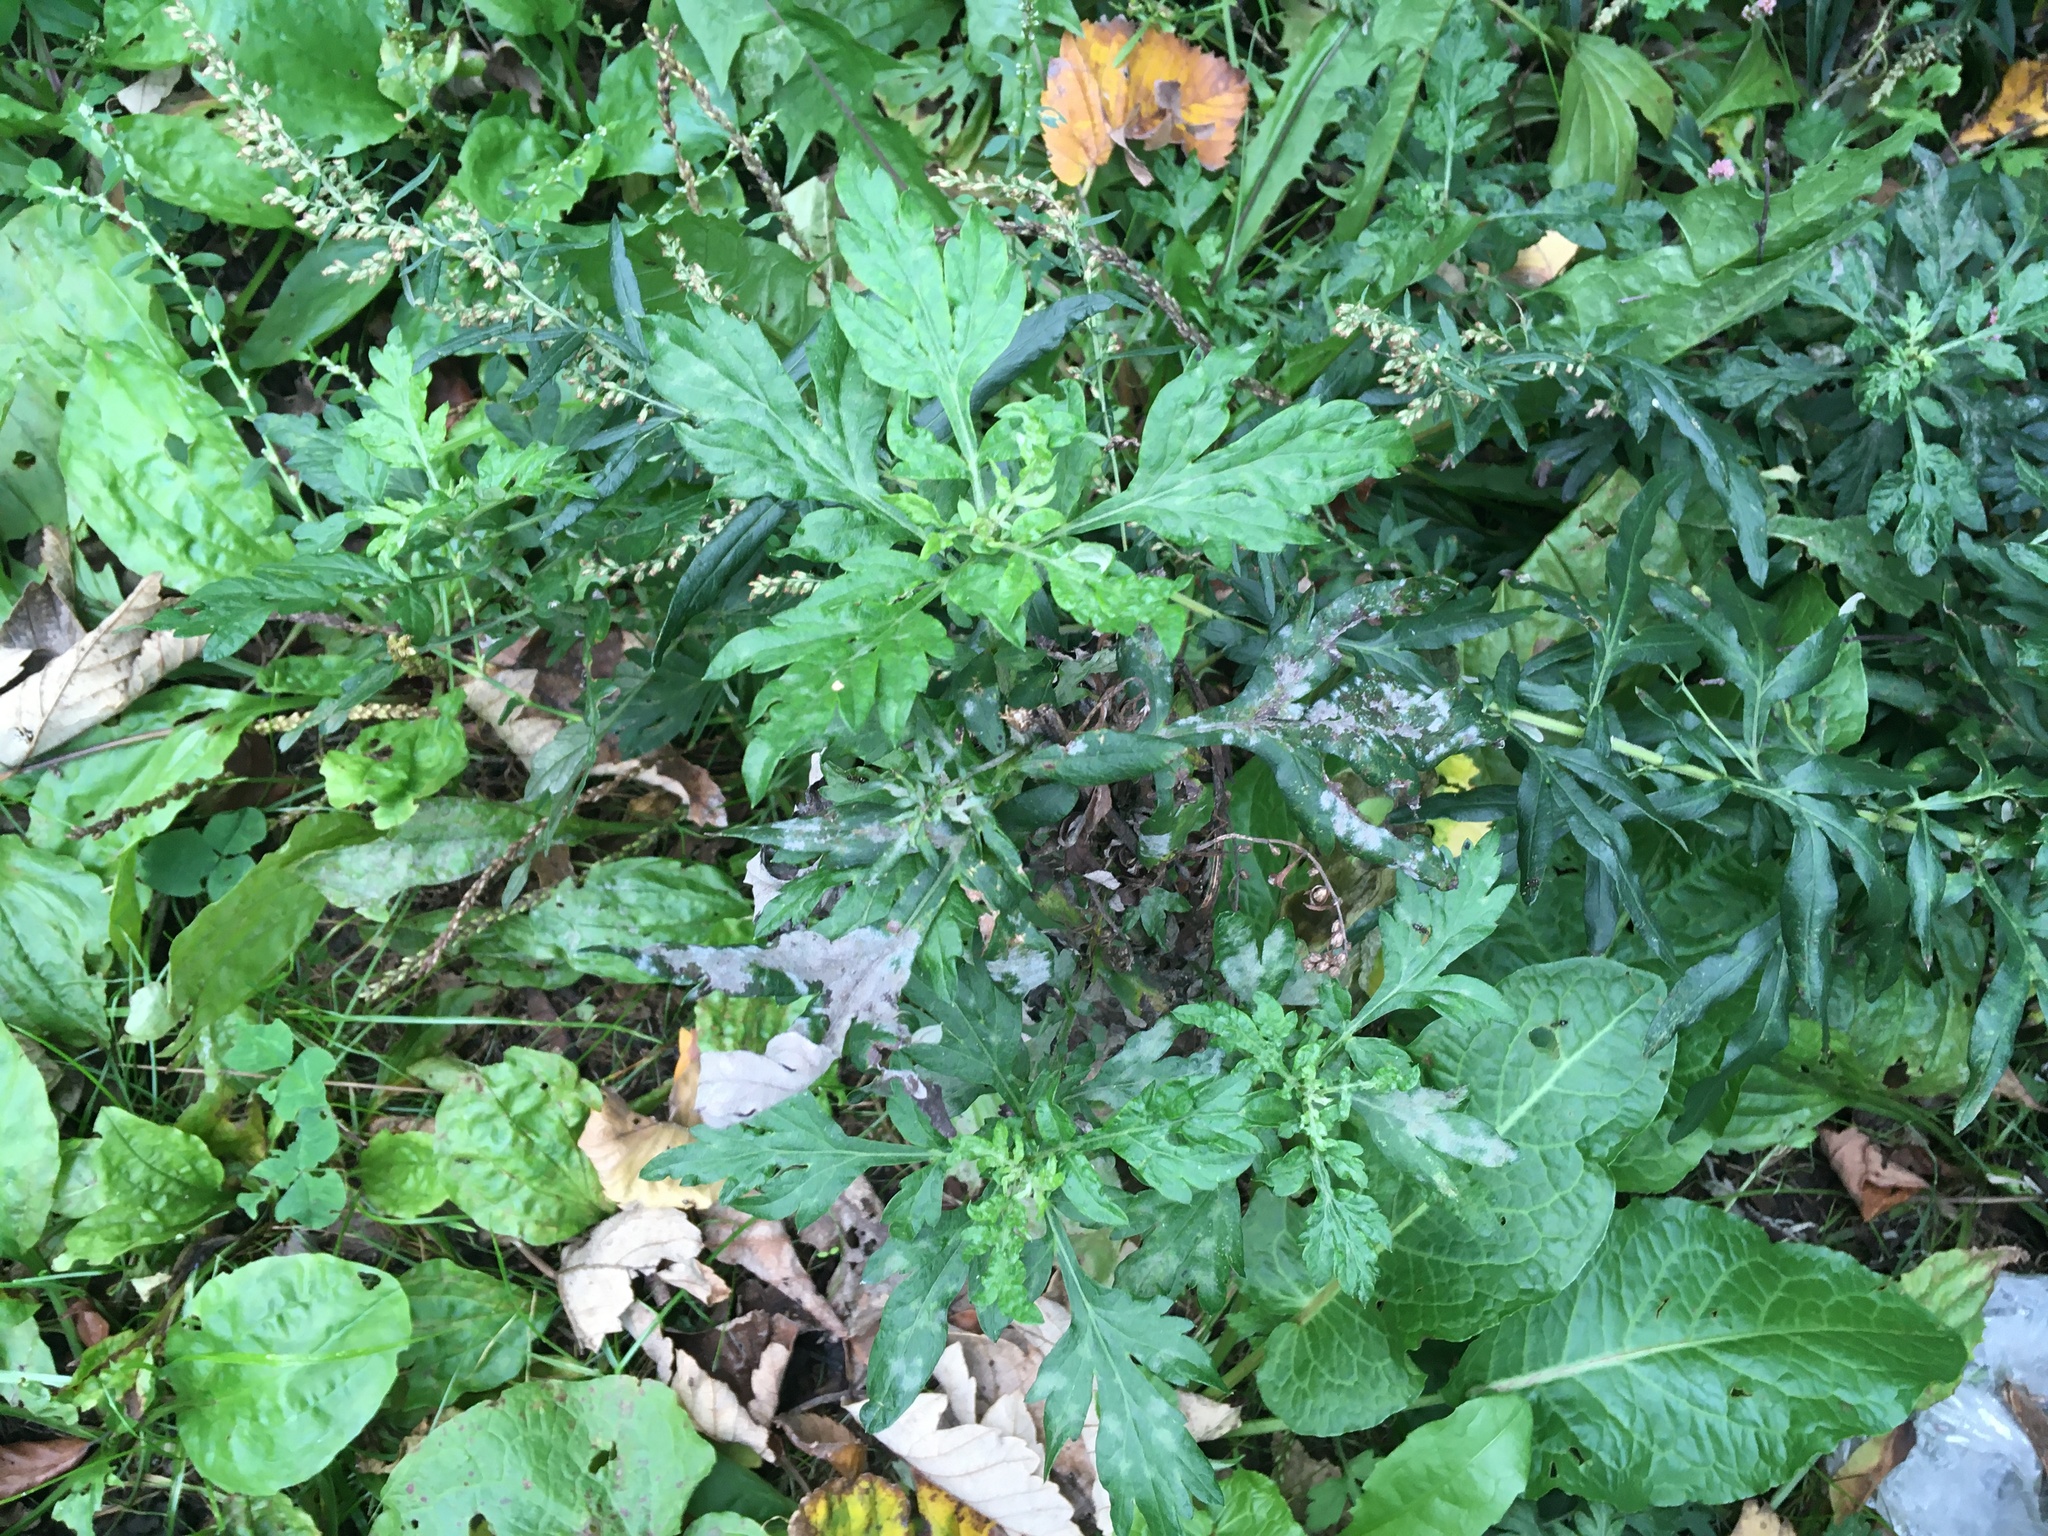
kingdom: Plantae
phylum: Tracheophyta
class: Magnoliopsida
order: Asterales
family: Asteraceae
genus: Artemisia
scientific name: Artemisia vulgaris
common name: Mugwort
